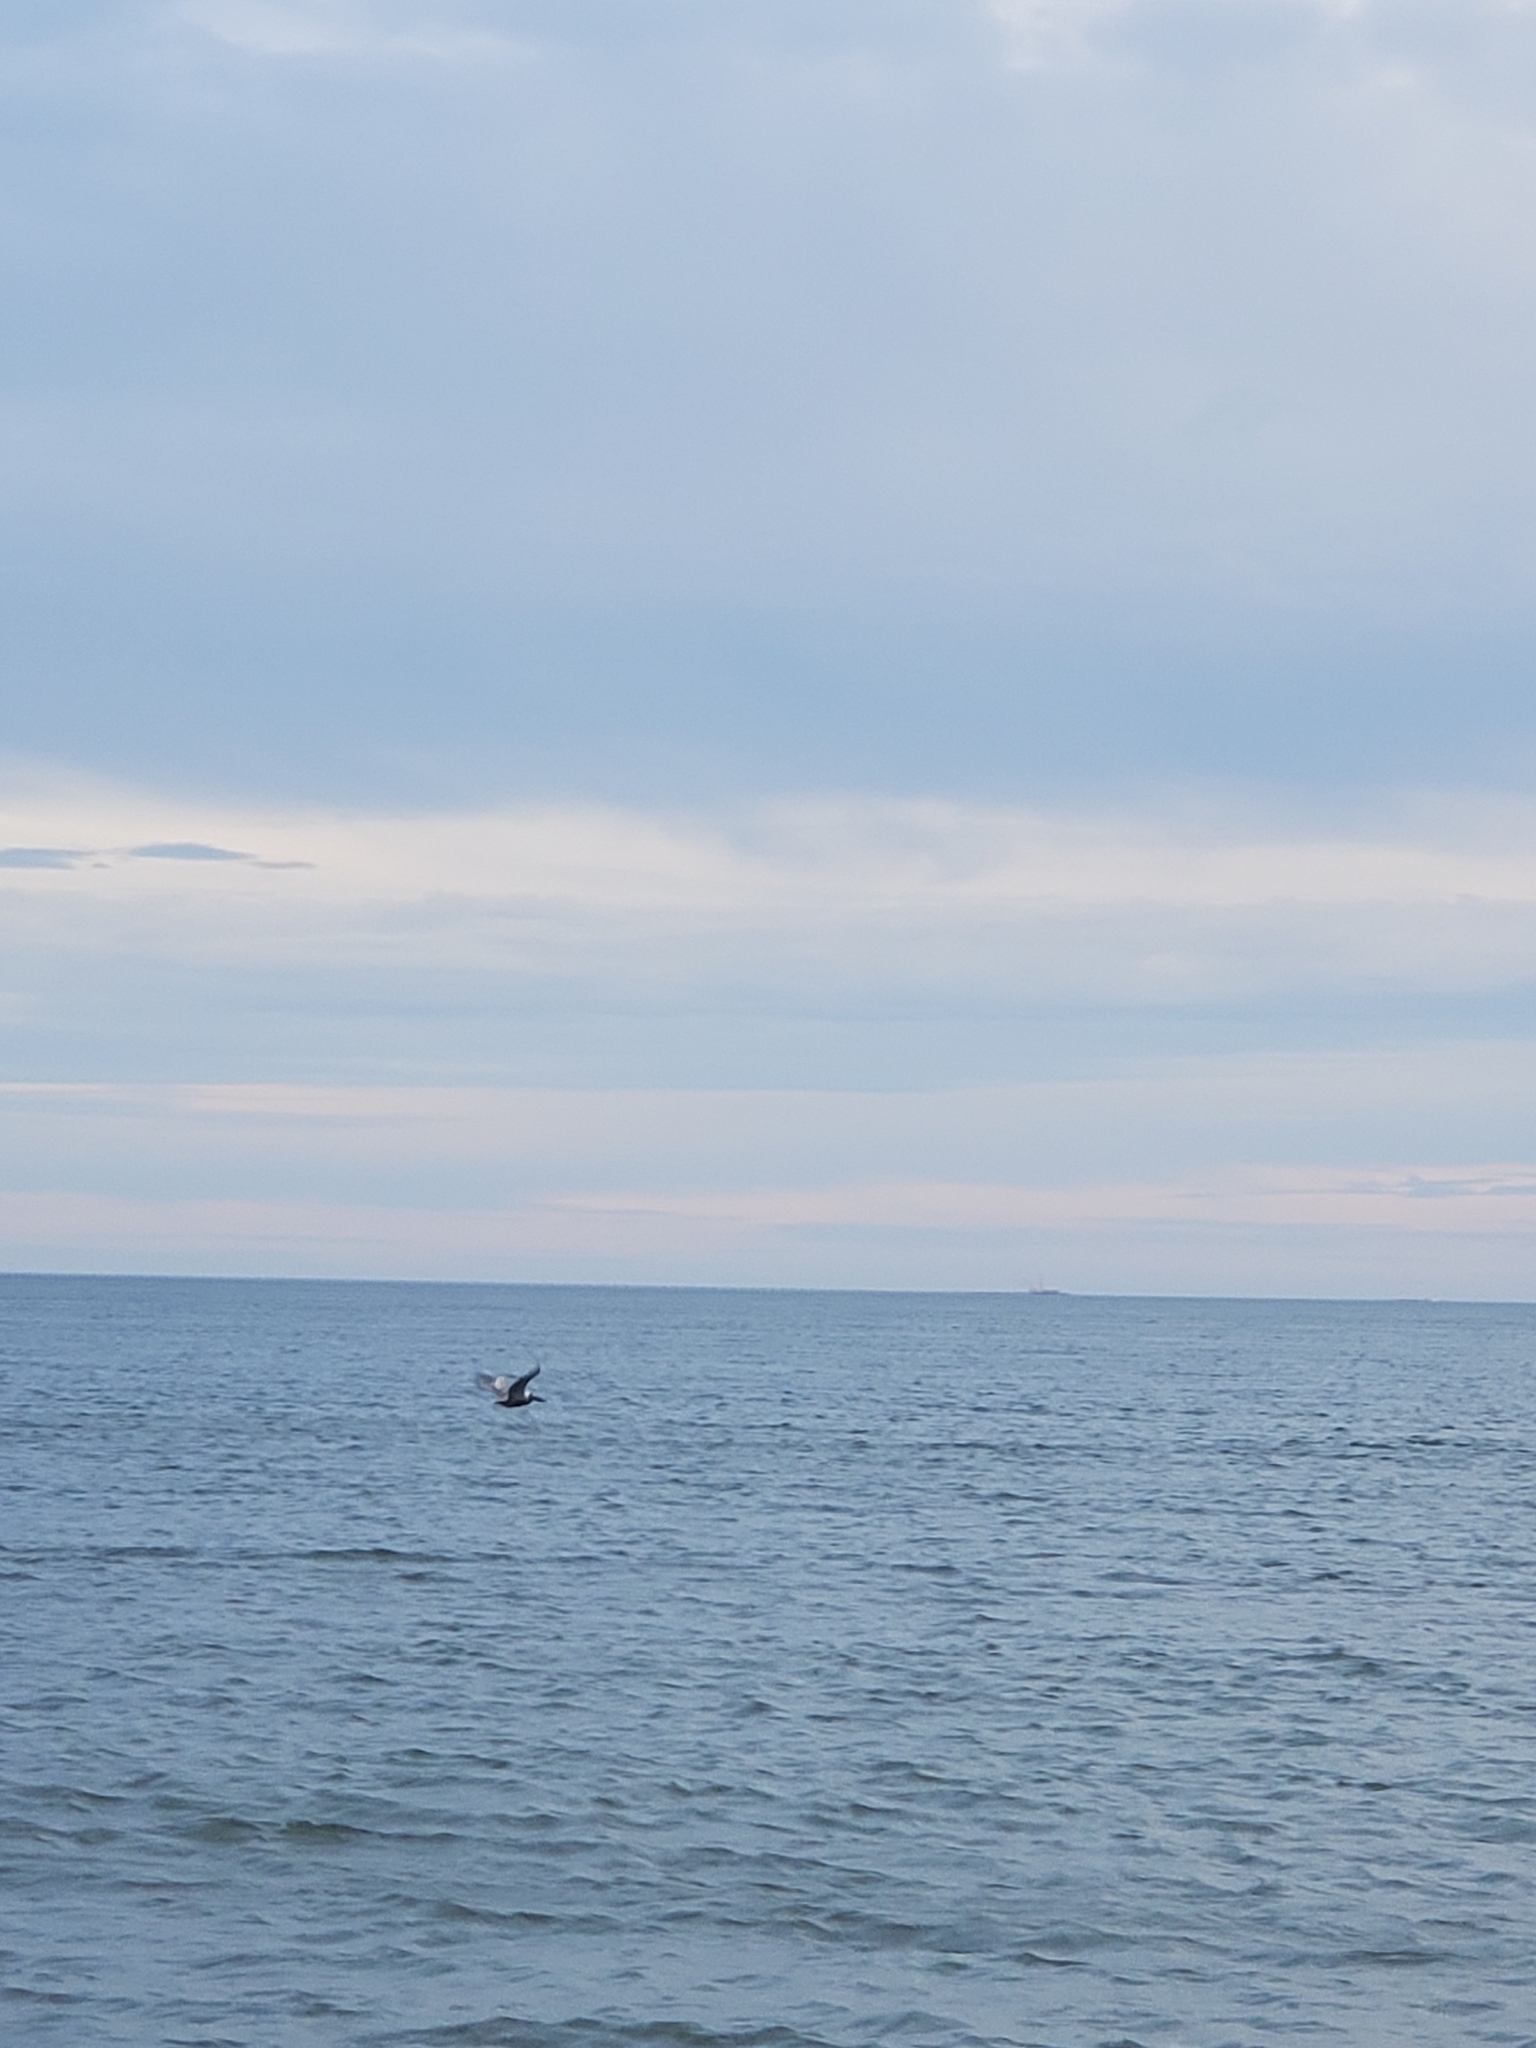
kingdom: Animalia
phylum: Chordata
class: Aves
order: Pelecaniformes
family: Pelecanidae
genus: Pelecanus
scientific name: Pelecanus occidentalis
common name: Brown pelican
